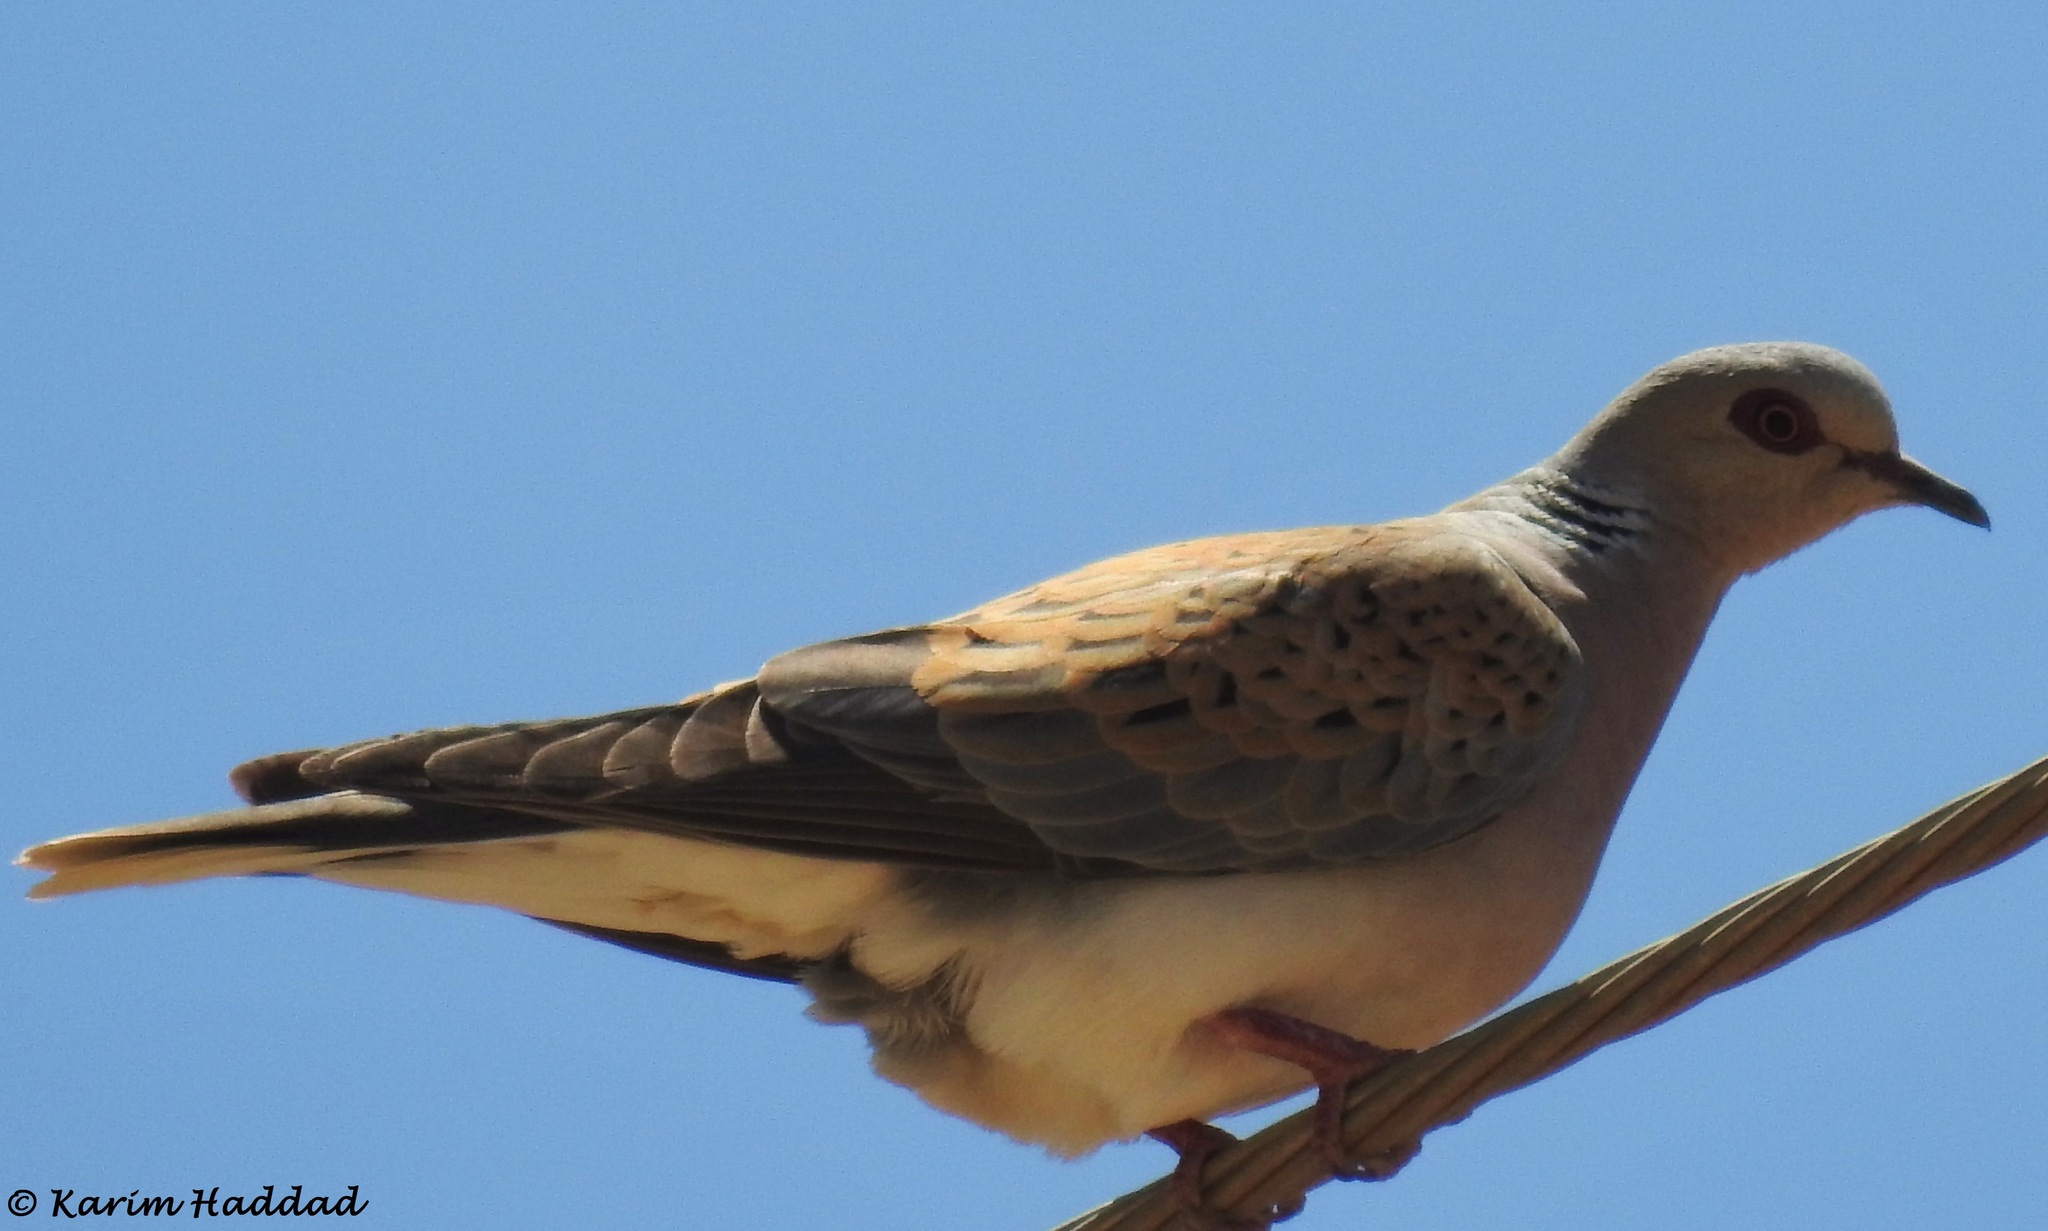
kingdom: Animalia
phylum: Chordata
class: Aves
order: Columbiformes
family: Columbidae
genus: Streptopelia
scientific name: Streptopelia turtur
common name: European turtle dove
